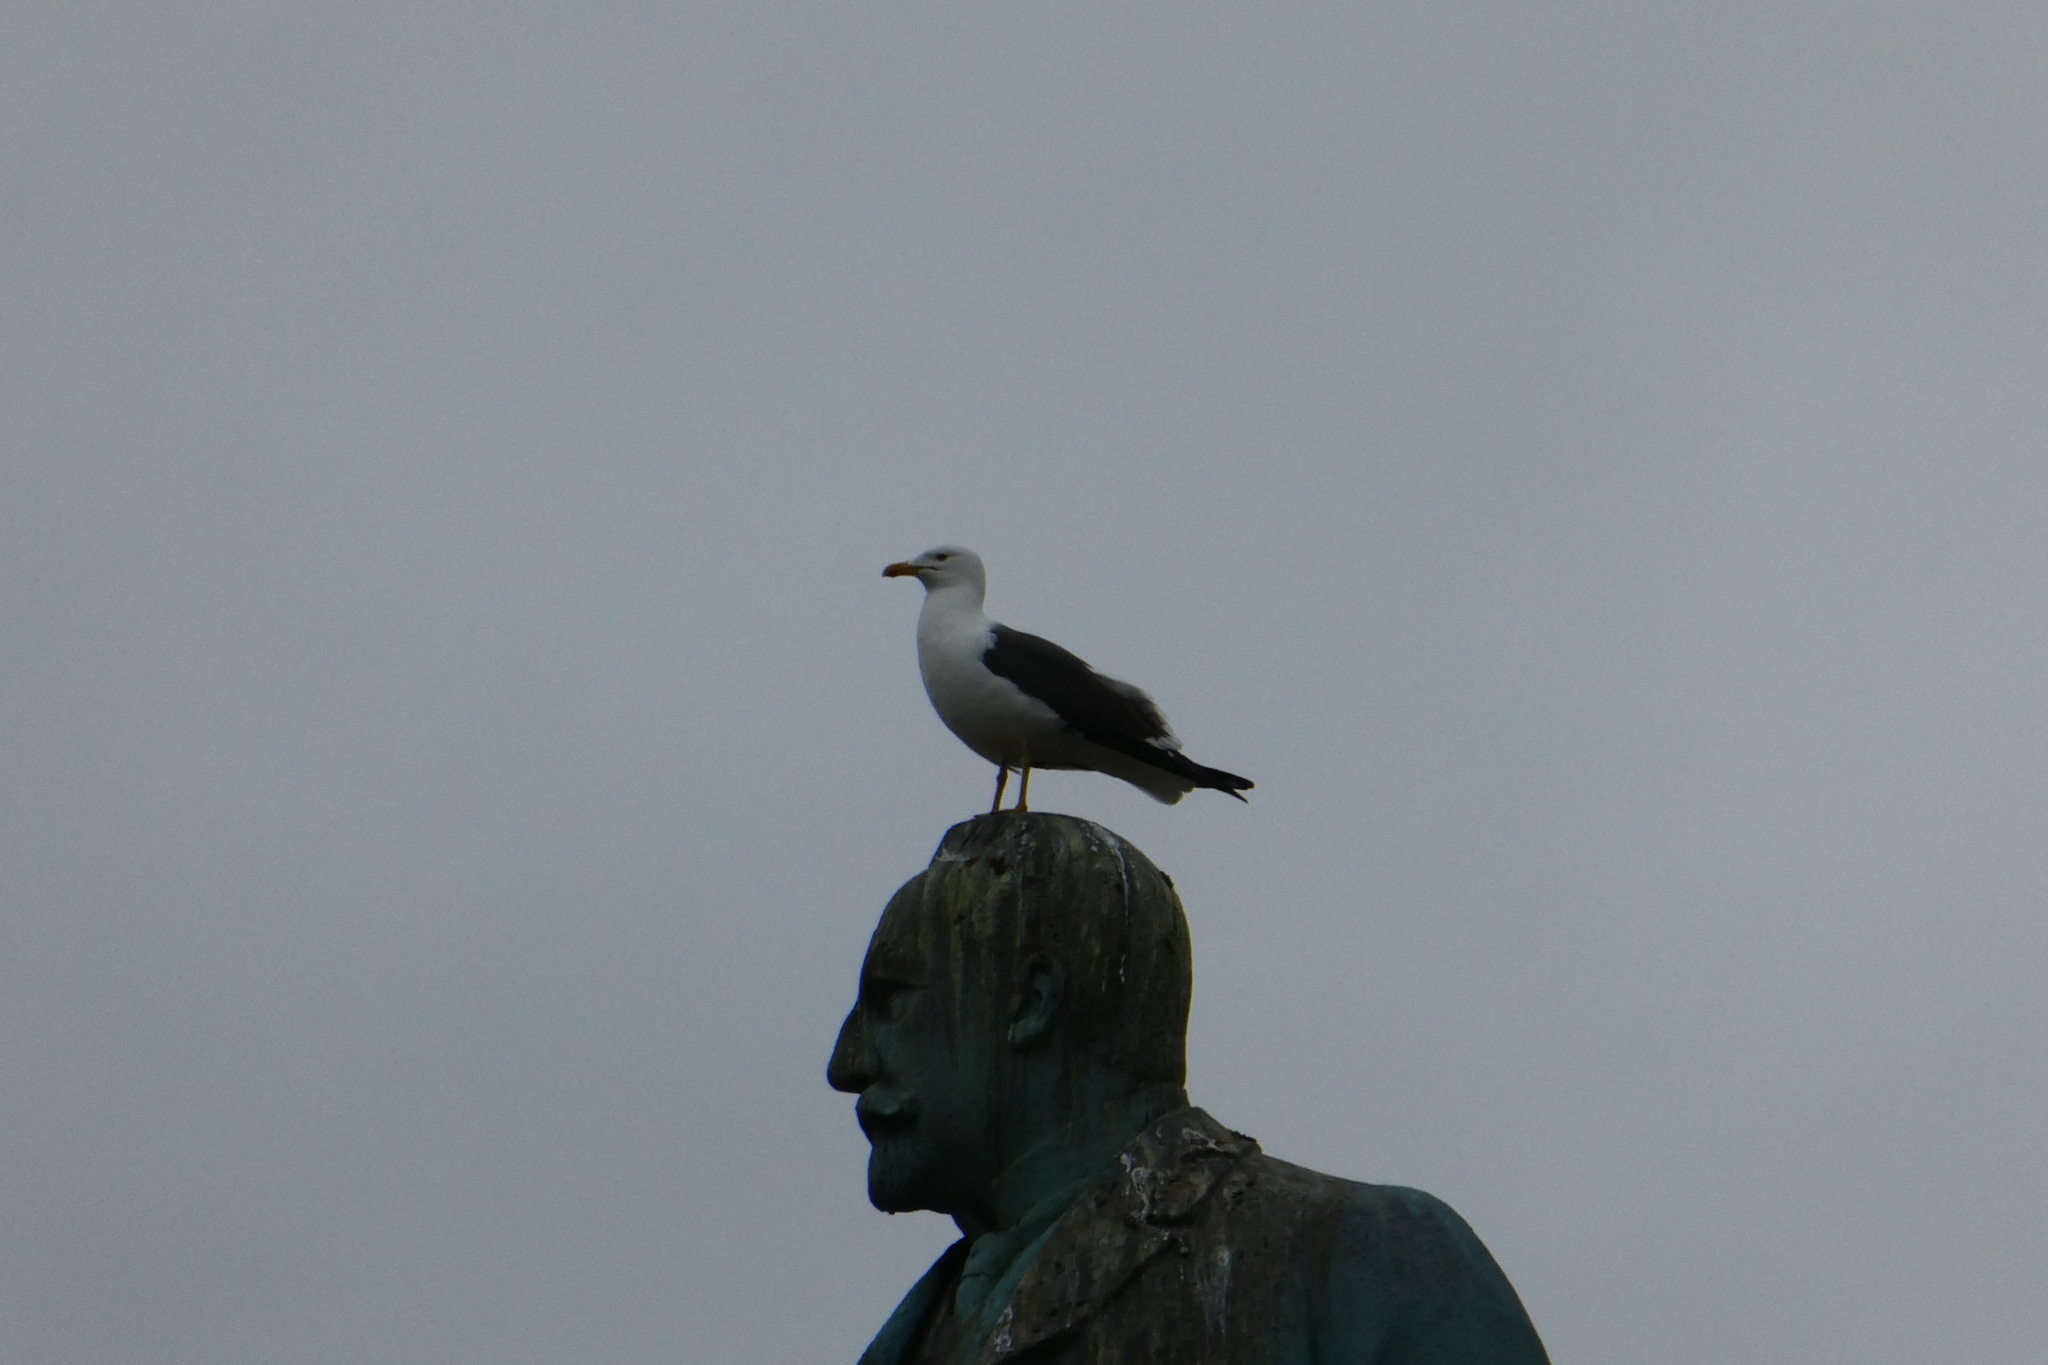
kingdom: Animalia
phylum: Chordata
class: Aves
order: Charadriiformes
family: Laridae
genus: Larus
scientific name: Larus fuscus
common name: Lesser black-backed gull
